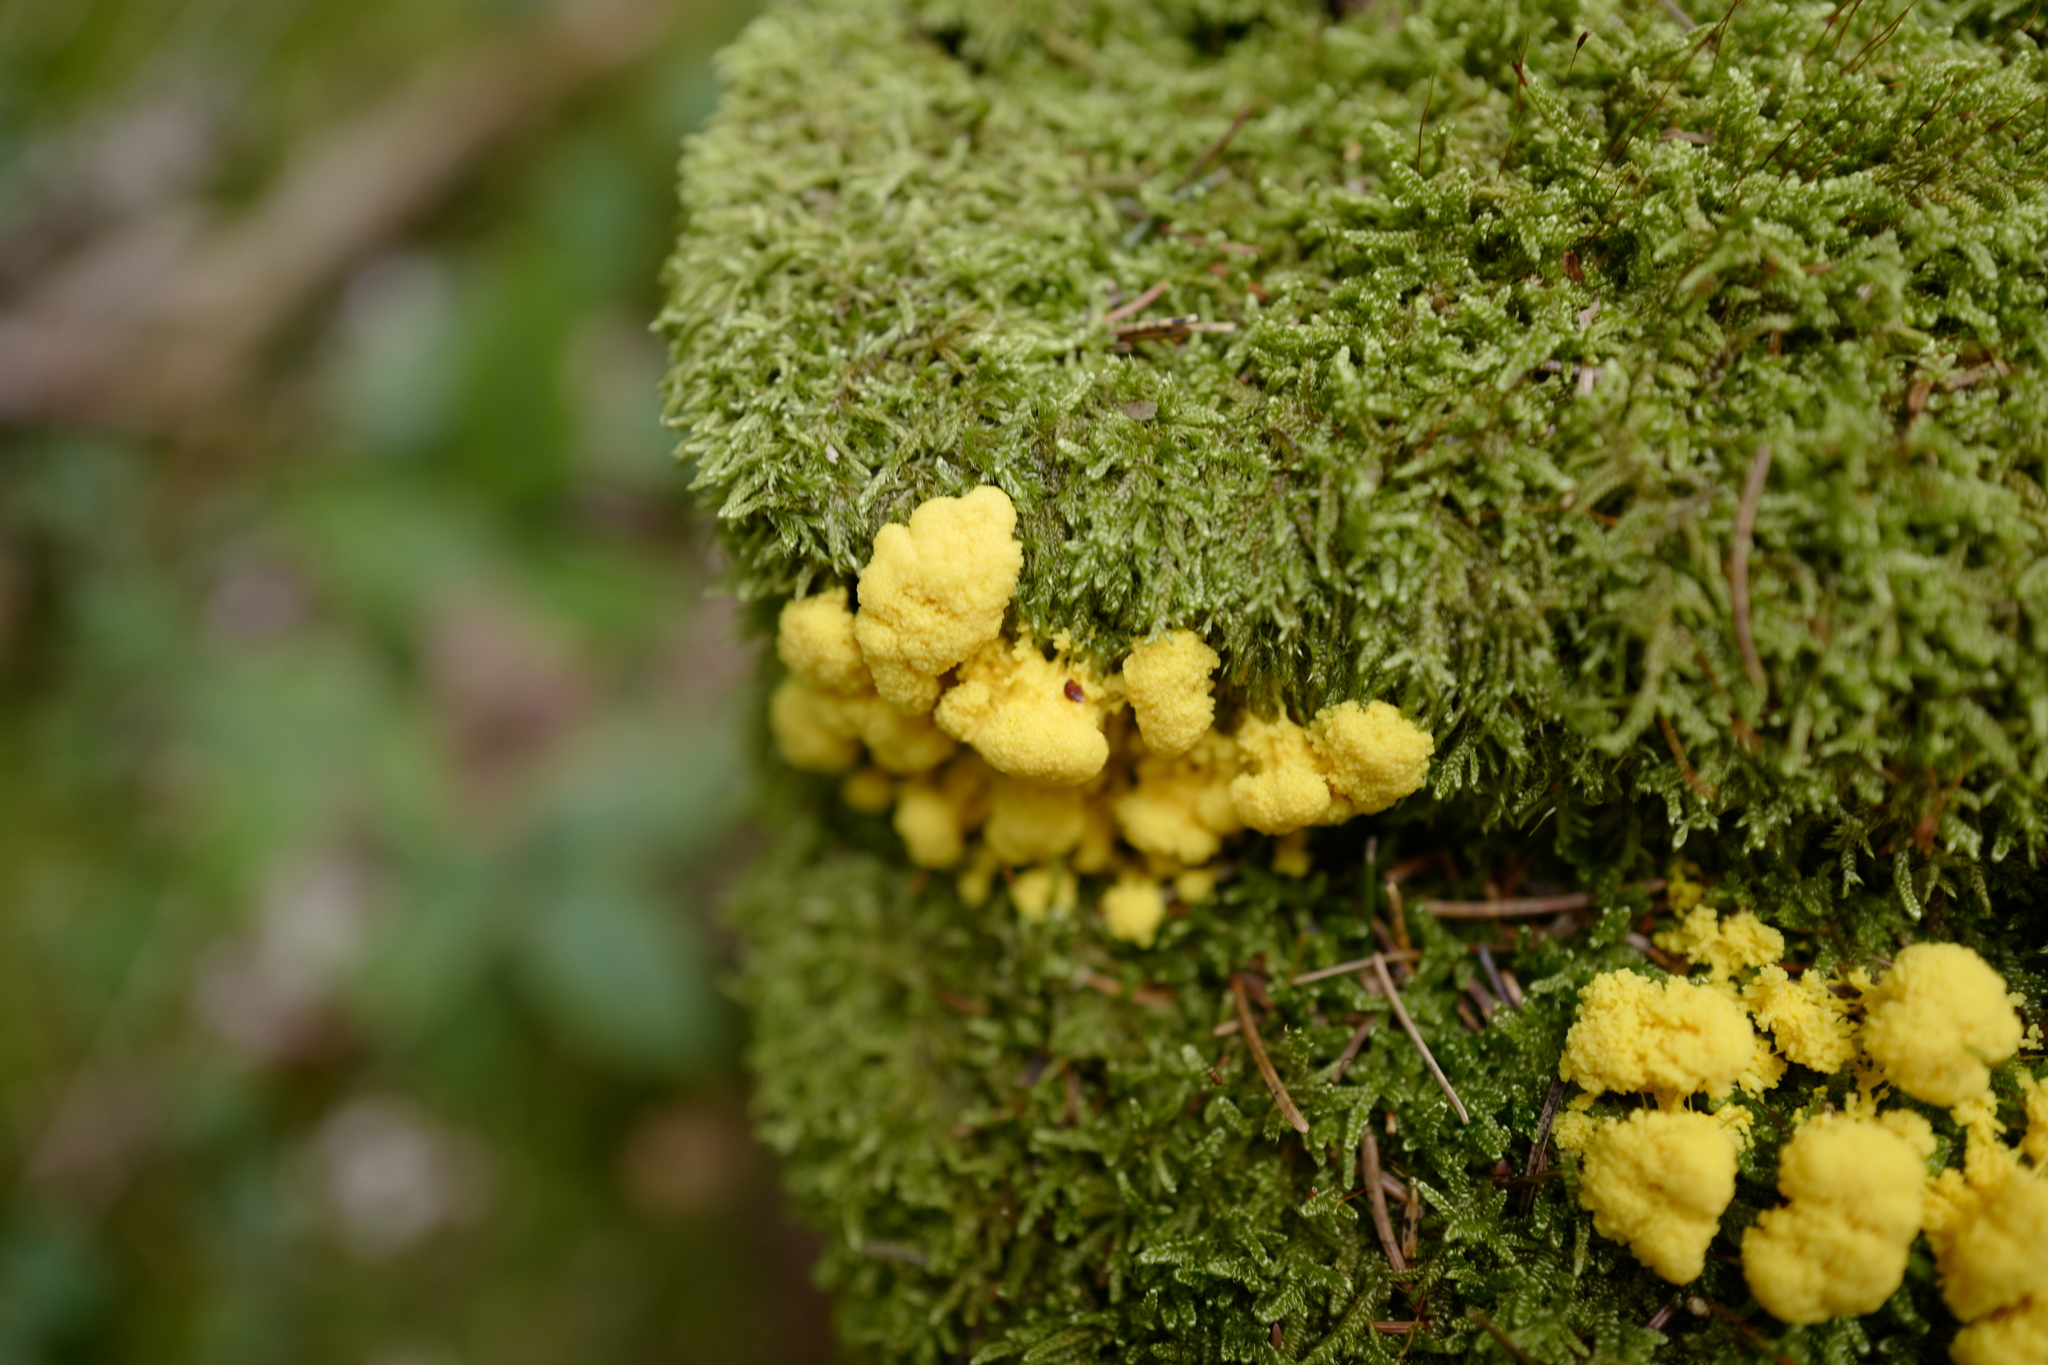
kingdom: Protozoa
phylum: Mycetozoa
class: Myxomycetes
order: Physarales
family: Physaraceae
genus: Fuligo
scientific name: Fuligo septica
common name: Dog vomit slime mold
